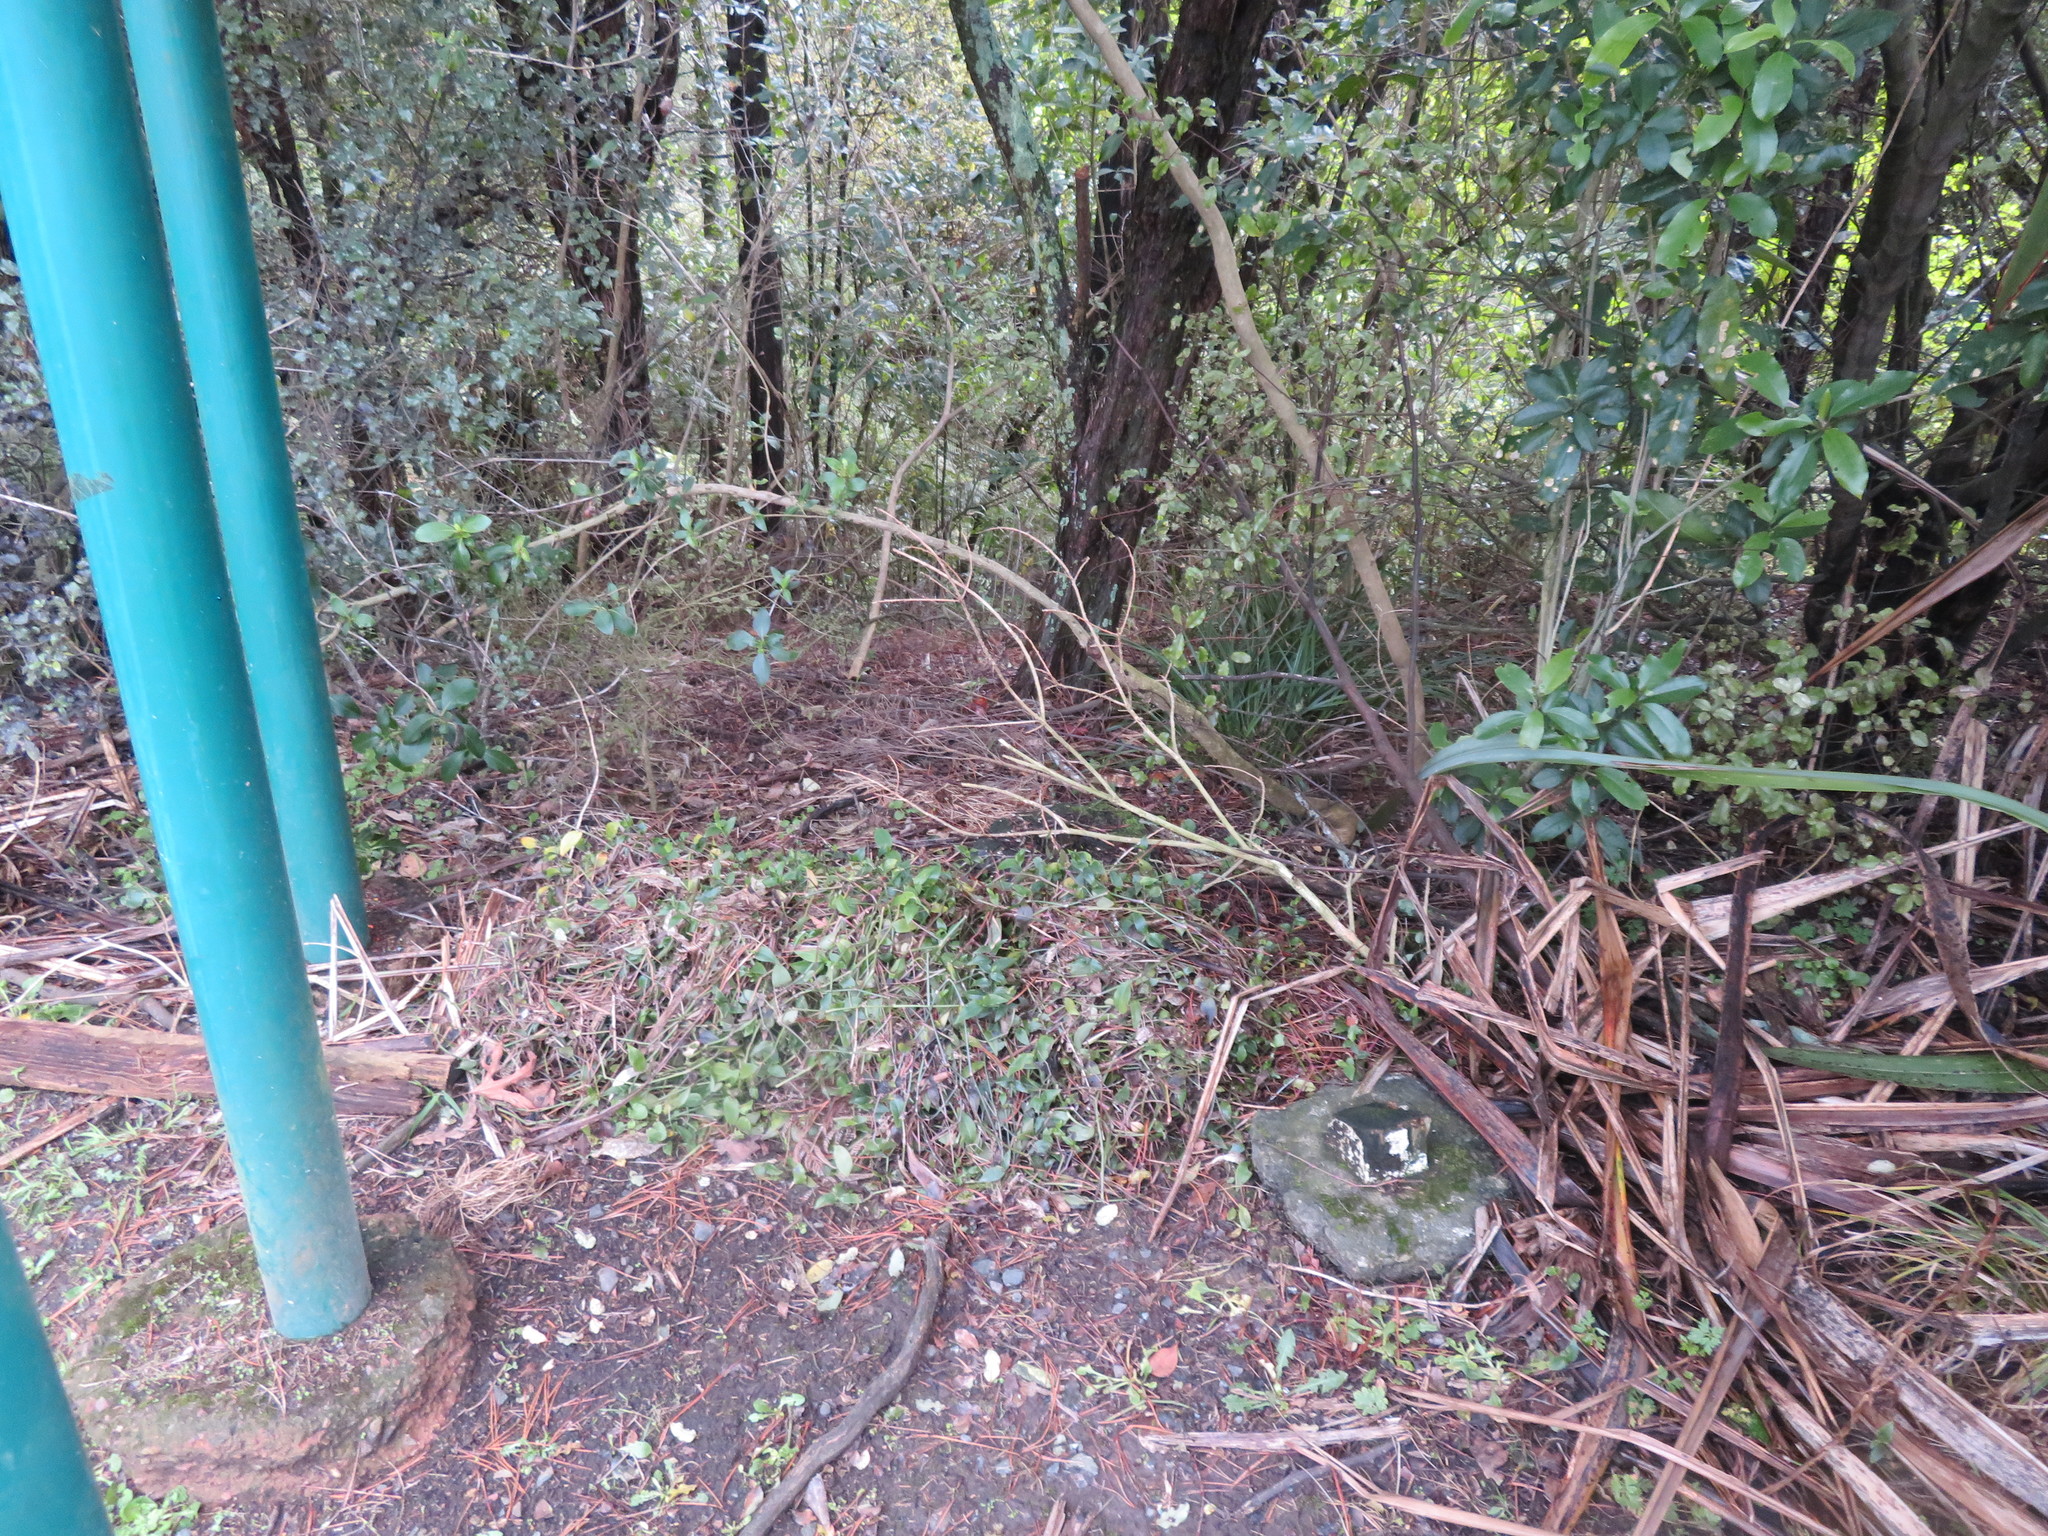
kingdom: Plantae
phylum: Tracheophyta
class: Liliopsida
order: Commelinales
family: Commelinaceae
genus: Tradescantia
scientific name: Tradescantia fluminensis
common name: Wandering-jew
